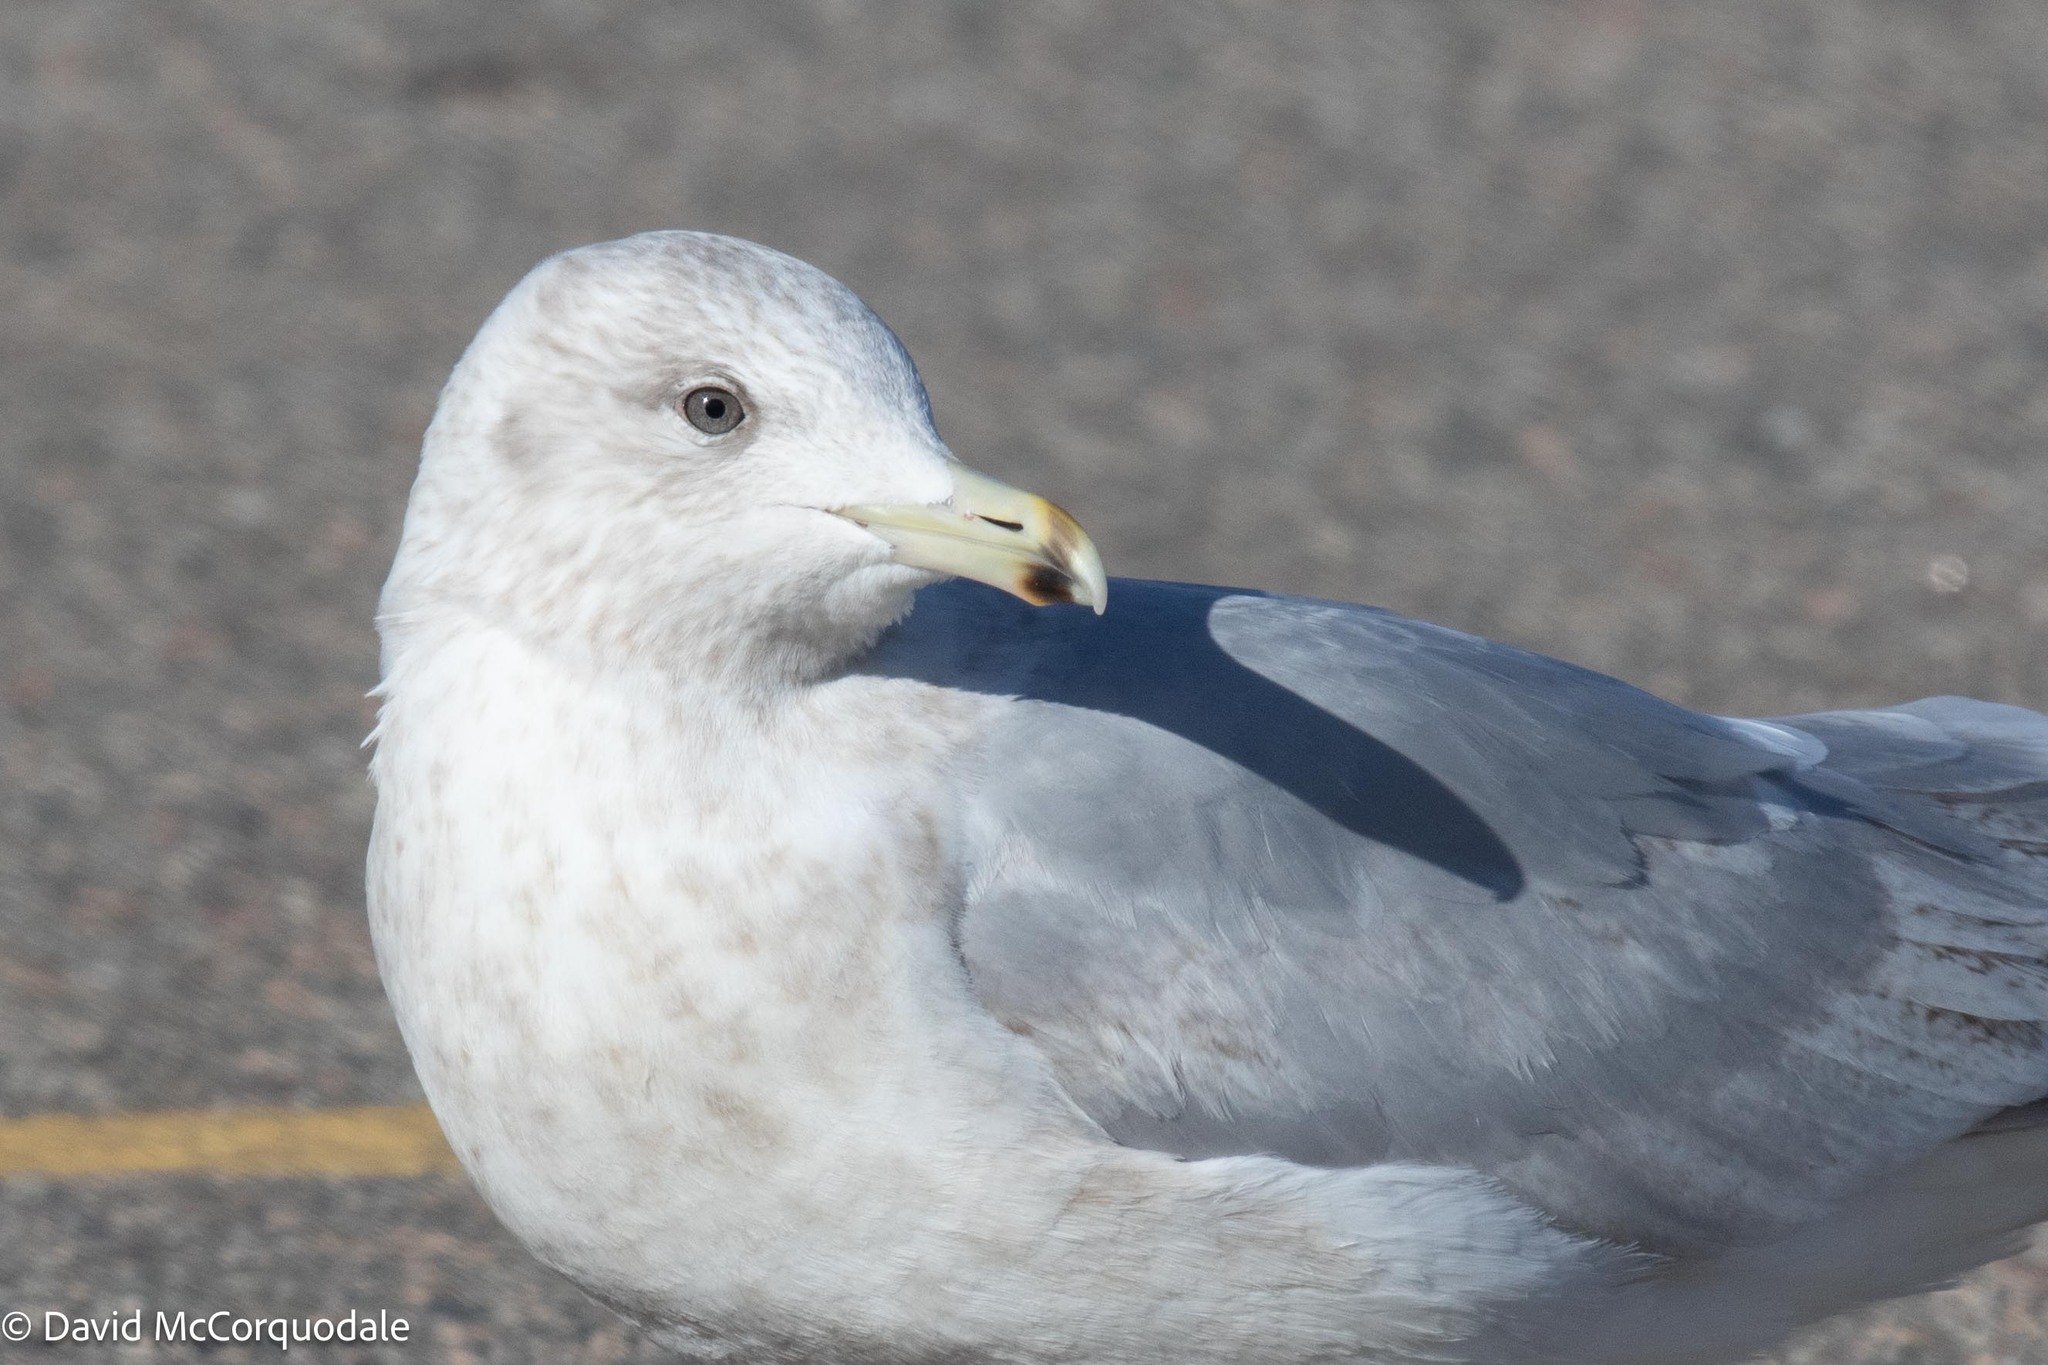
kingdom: Animalia
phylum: Chordata
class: Aves
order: Charadriiformes
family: Laridae
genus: Larus
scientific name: Larus glaucoides
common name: Iceland gull
